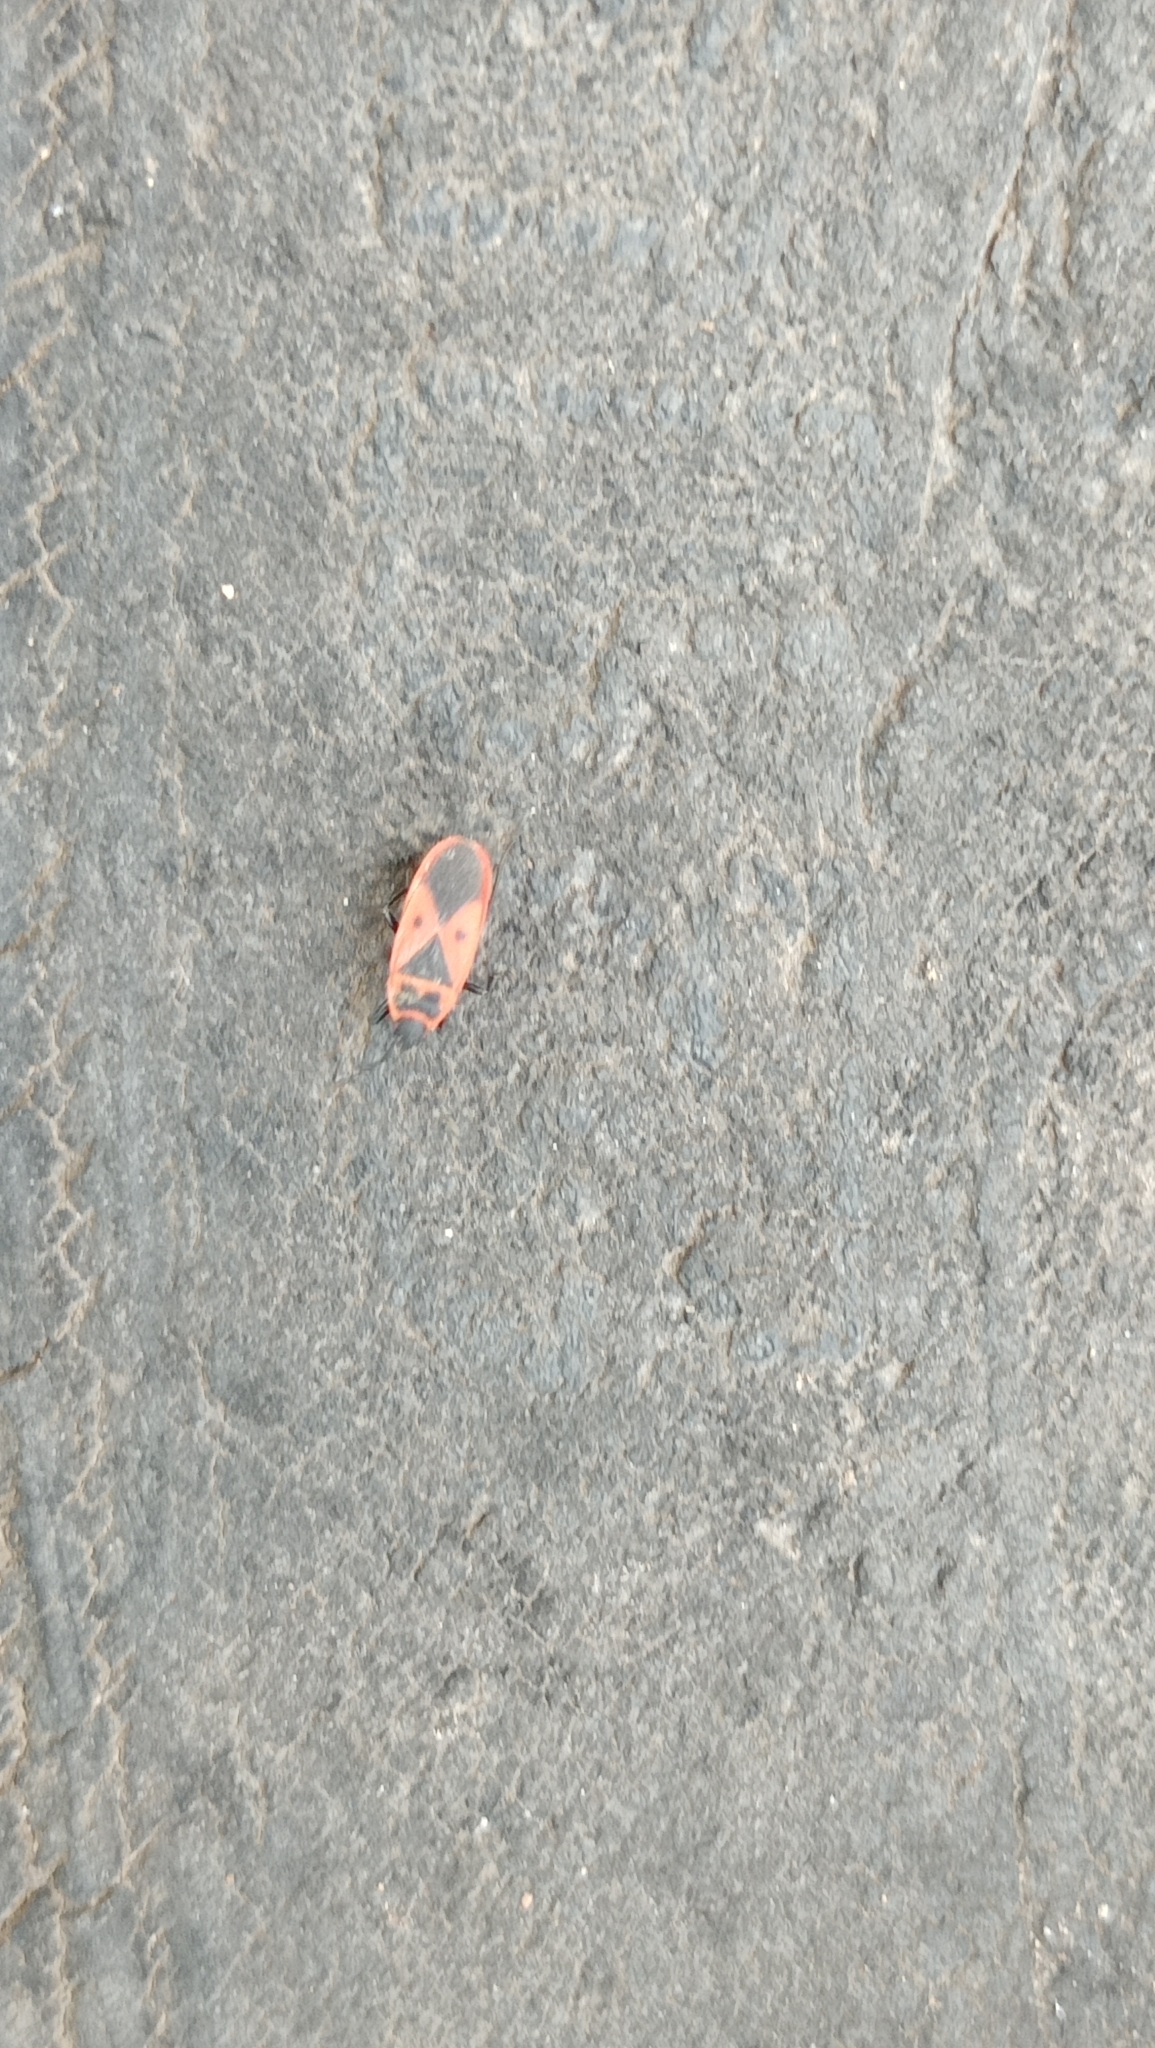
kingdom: Animalia
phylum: Arthropoda
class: Insecta
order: Hemiptera
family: Pyrrhocoridae
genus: Scantius
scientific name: Scantius aegyptius
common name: Red bug
